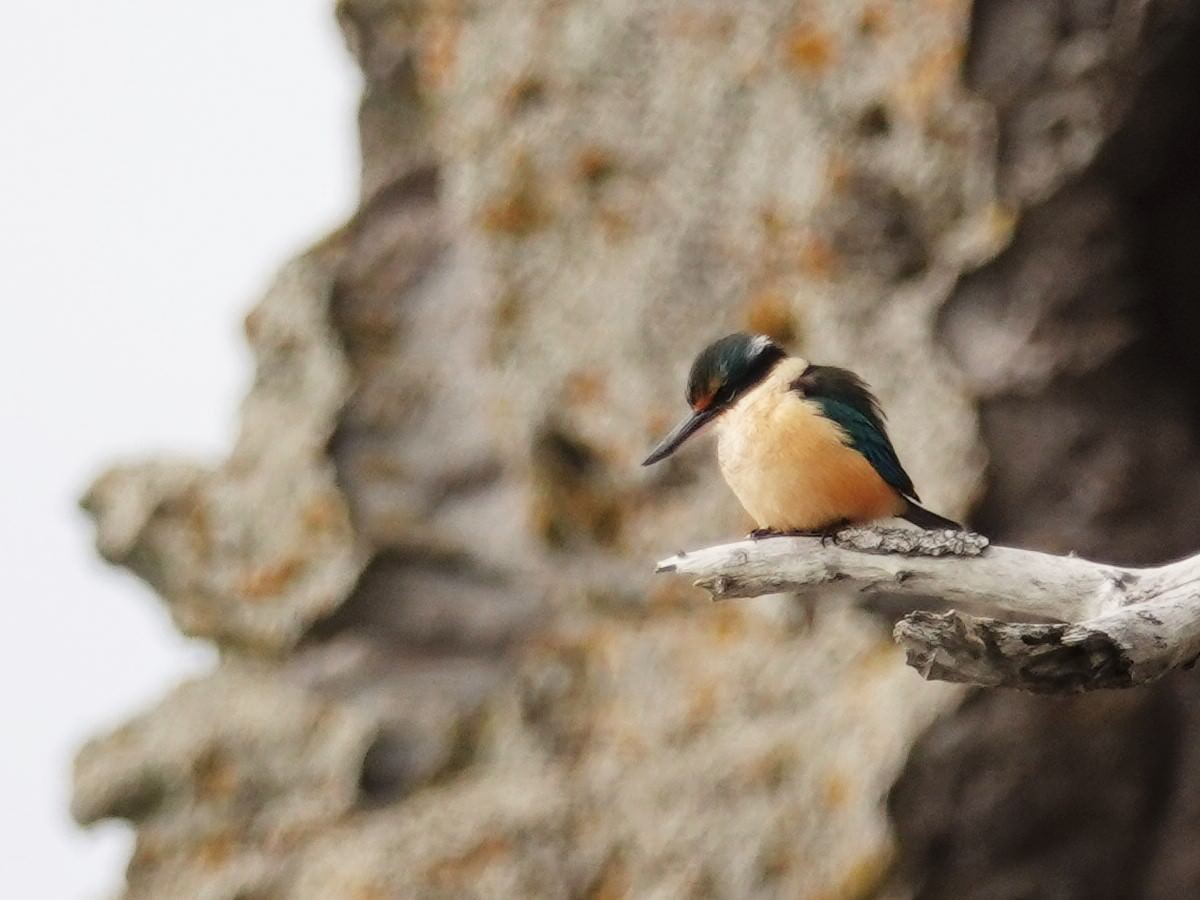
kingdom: Animalia
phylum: Chordata
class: Aves
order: Coraciiformes
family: Alcedinidae
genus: Todiramphus
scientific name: Todiramphus sanctus
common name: Sacred kingfisher
